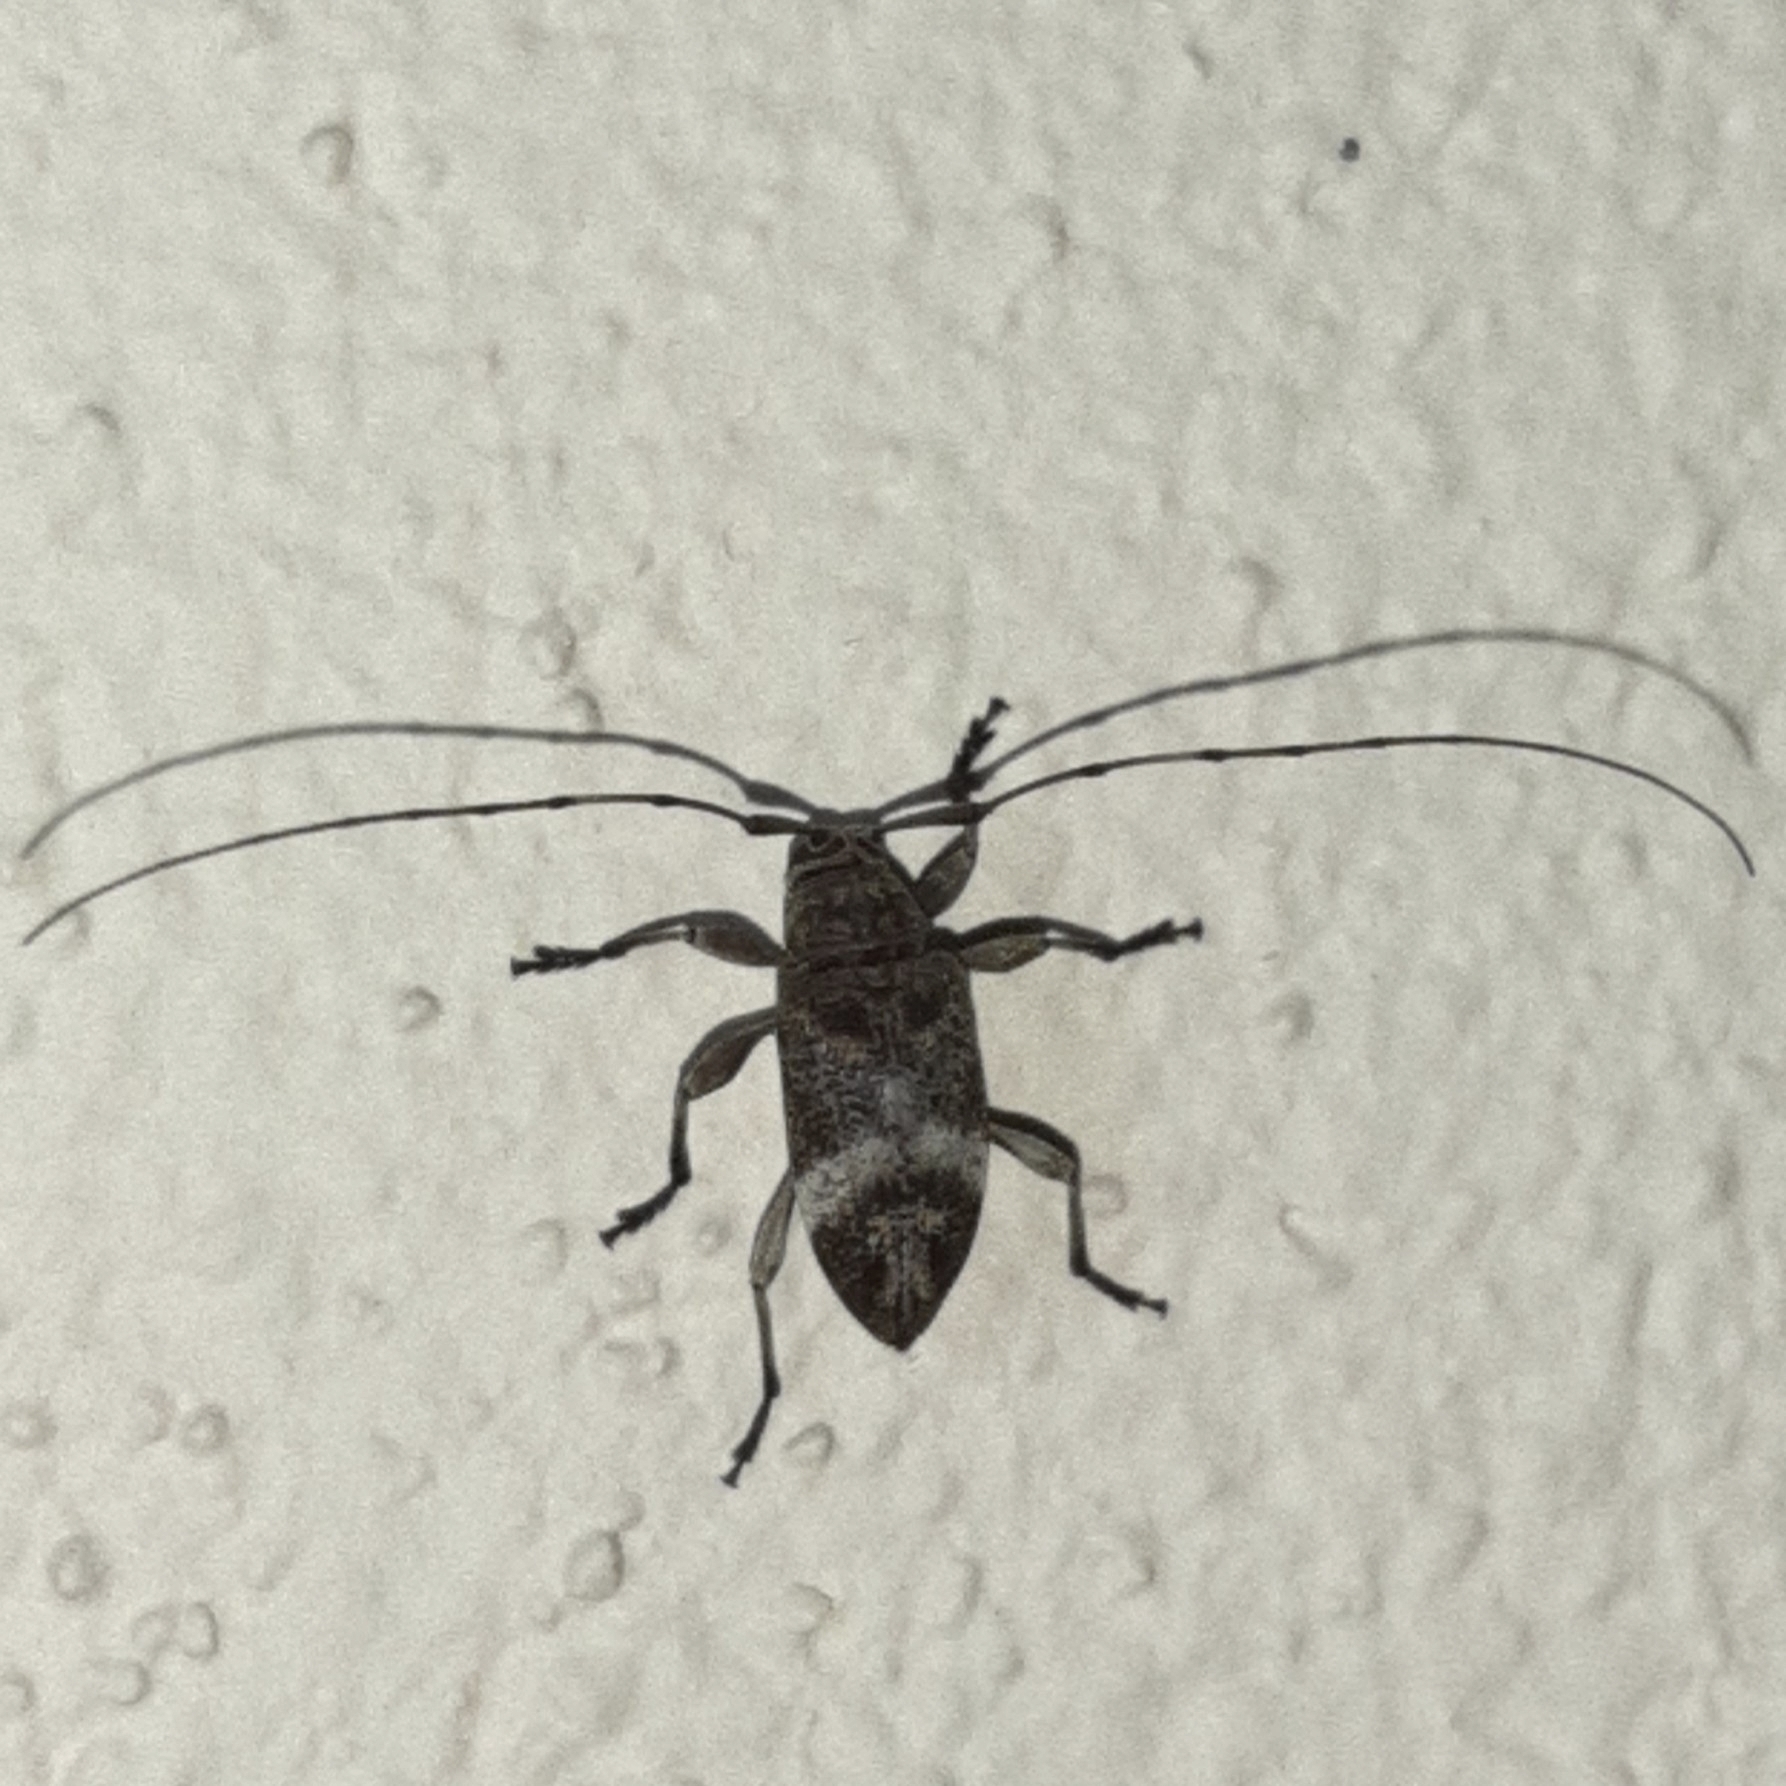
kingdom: Animalia
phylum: Arthropoda
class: Insecta
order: Coleoptera
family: Cerambycidae
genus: Atrypanius
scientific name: Atrypanius implexus
